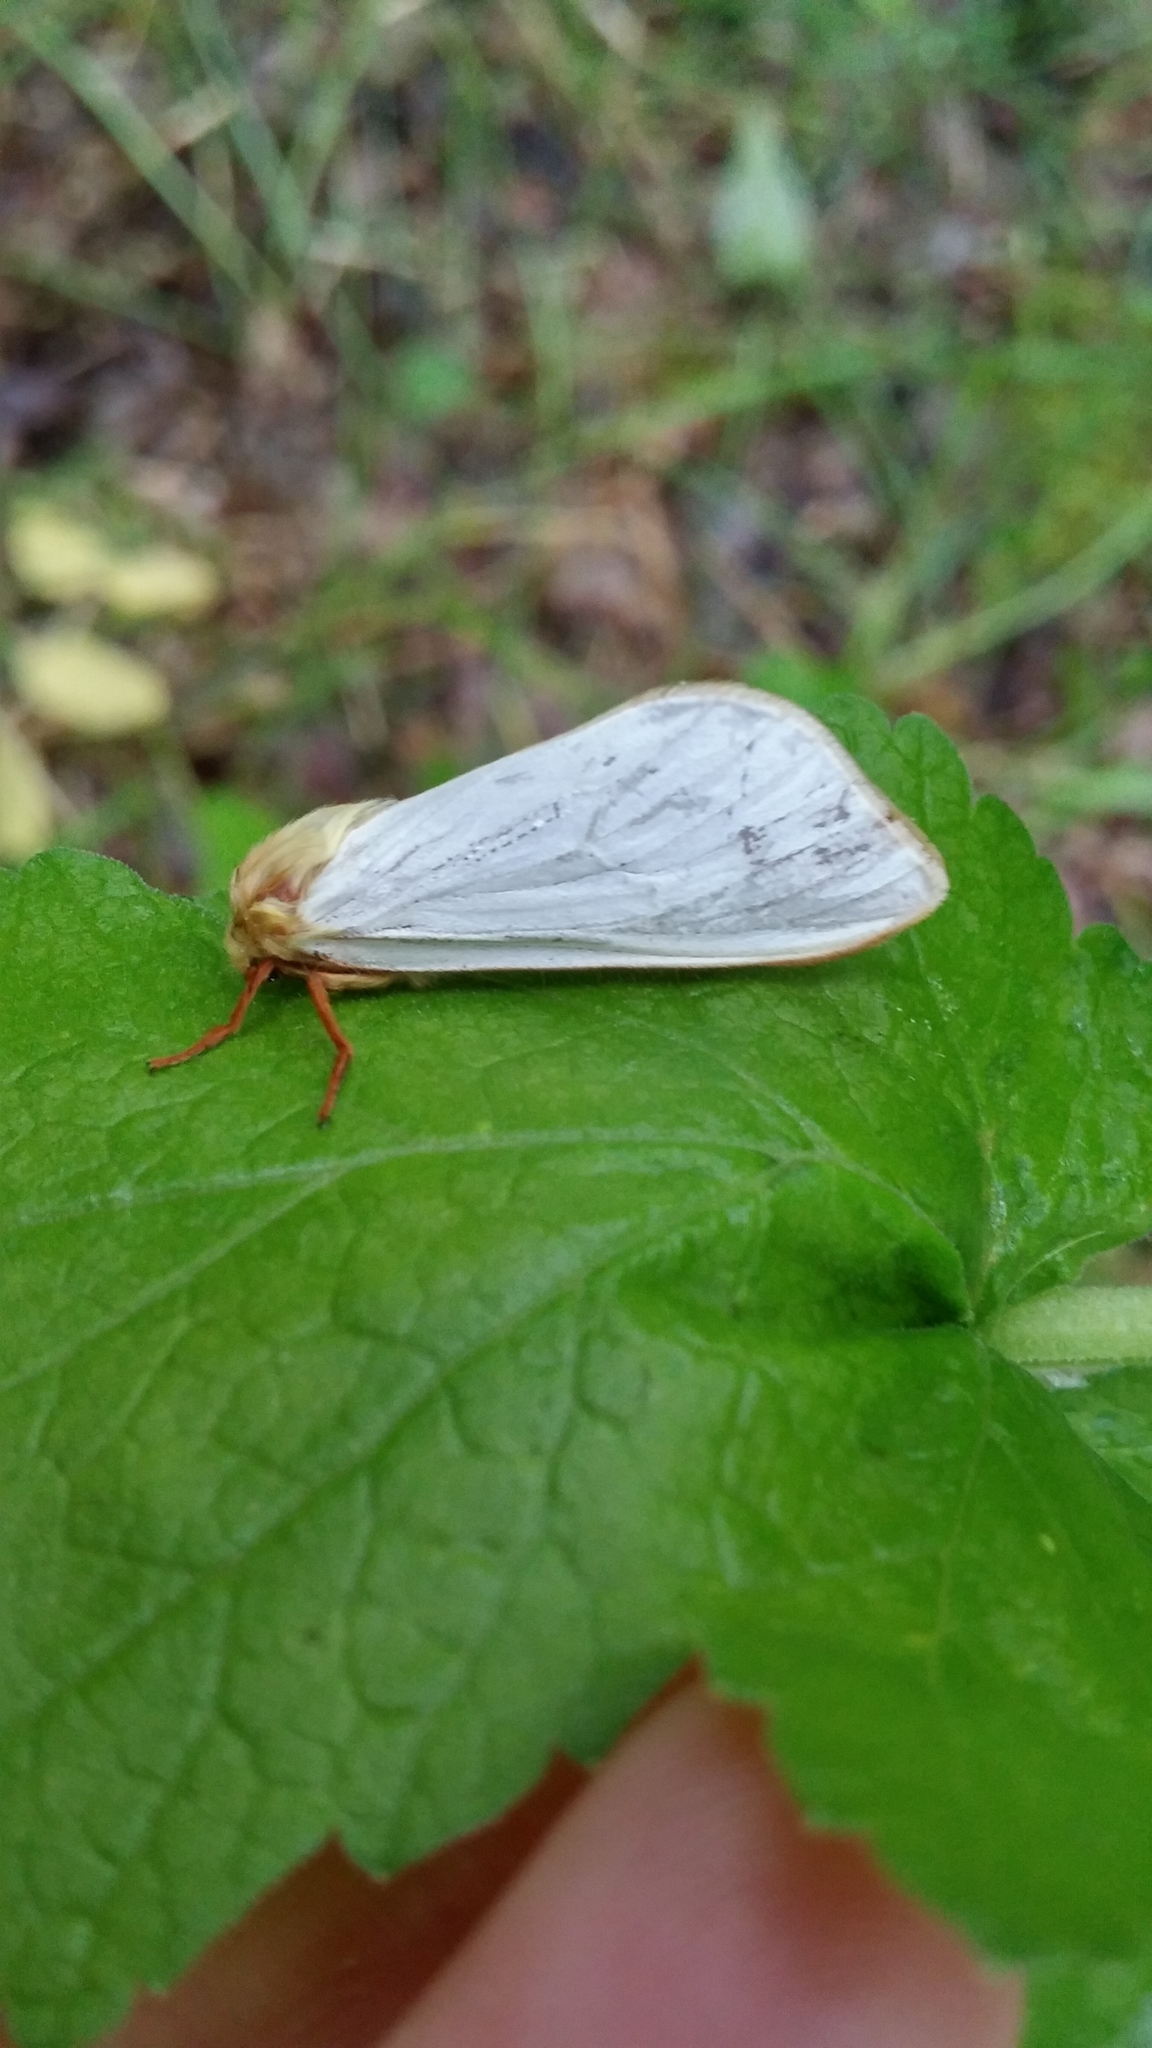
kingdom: Animalia
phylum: Arthropoda
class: Insecta
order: Lepidoptera
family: Hepialidae
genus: Hepialus
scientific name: Hepialus humuli
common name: Ghost moth
